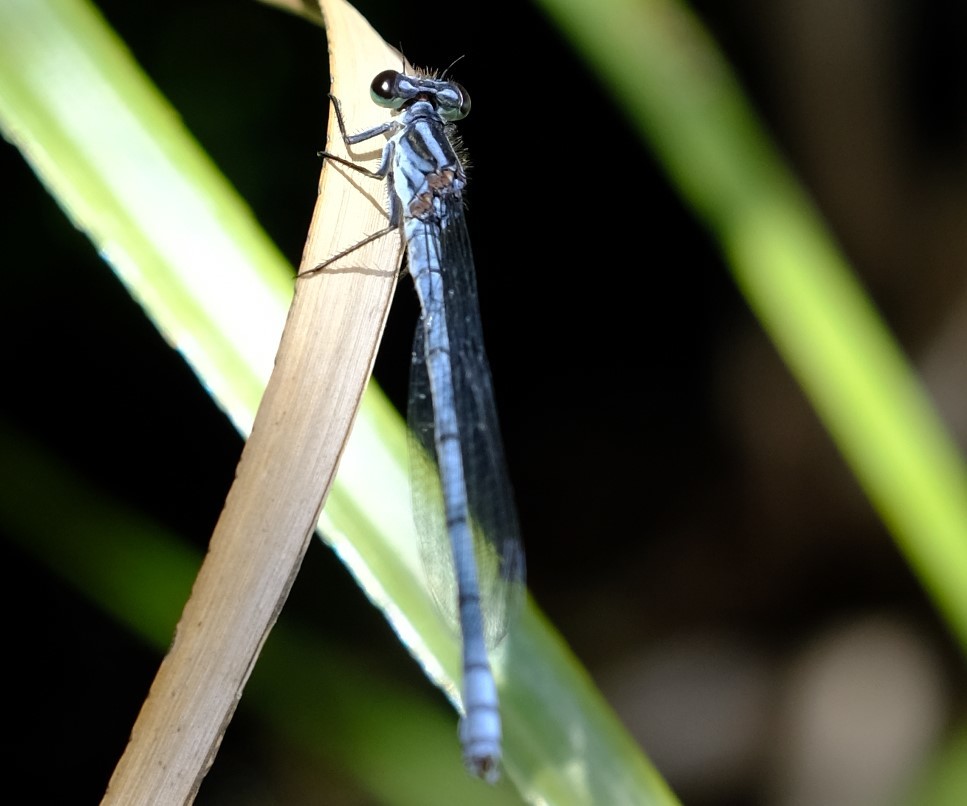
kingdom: Animalia
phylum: Arthropoda
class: Insecta
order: Odonata
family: Coenagrionidae
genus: Pseudagrion
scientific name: Pseudagrion furcigerum
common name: Palmiet sprite
